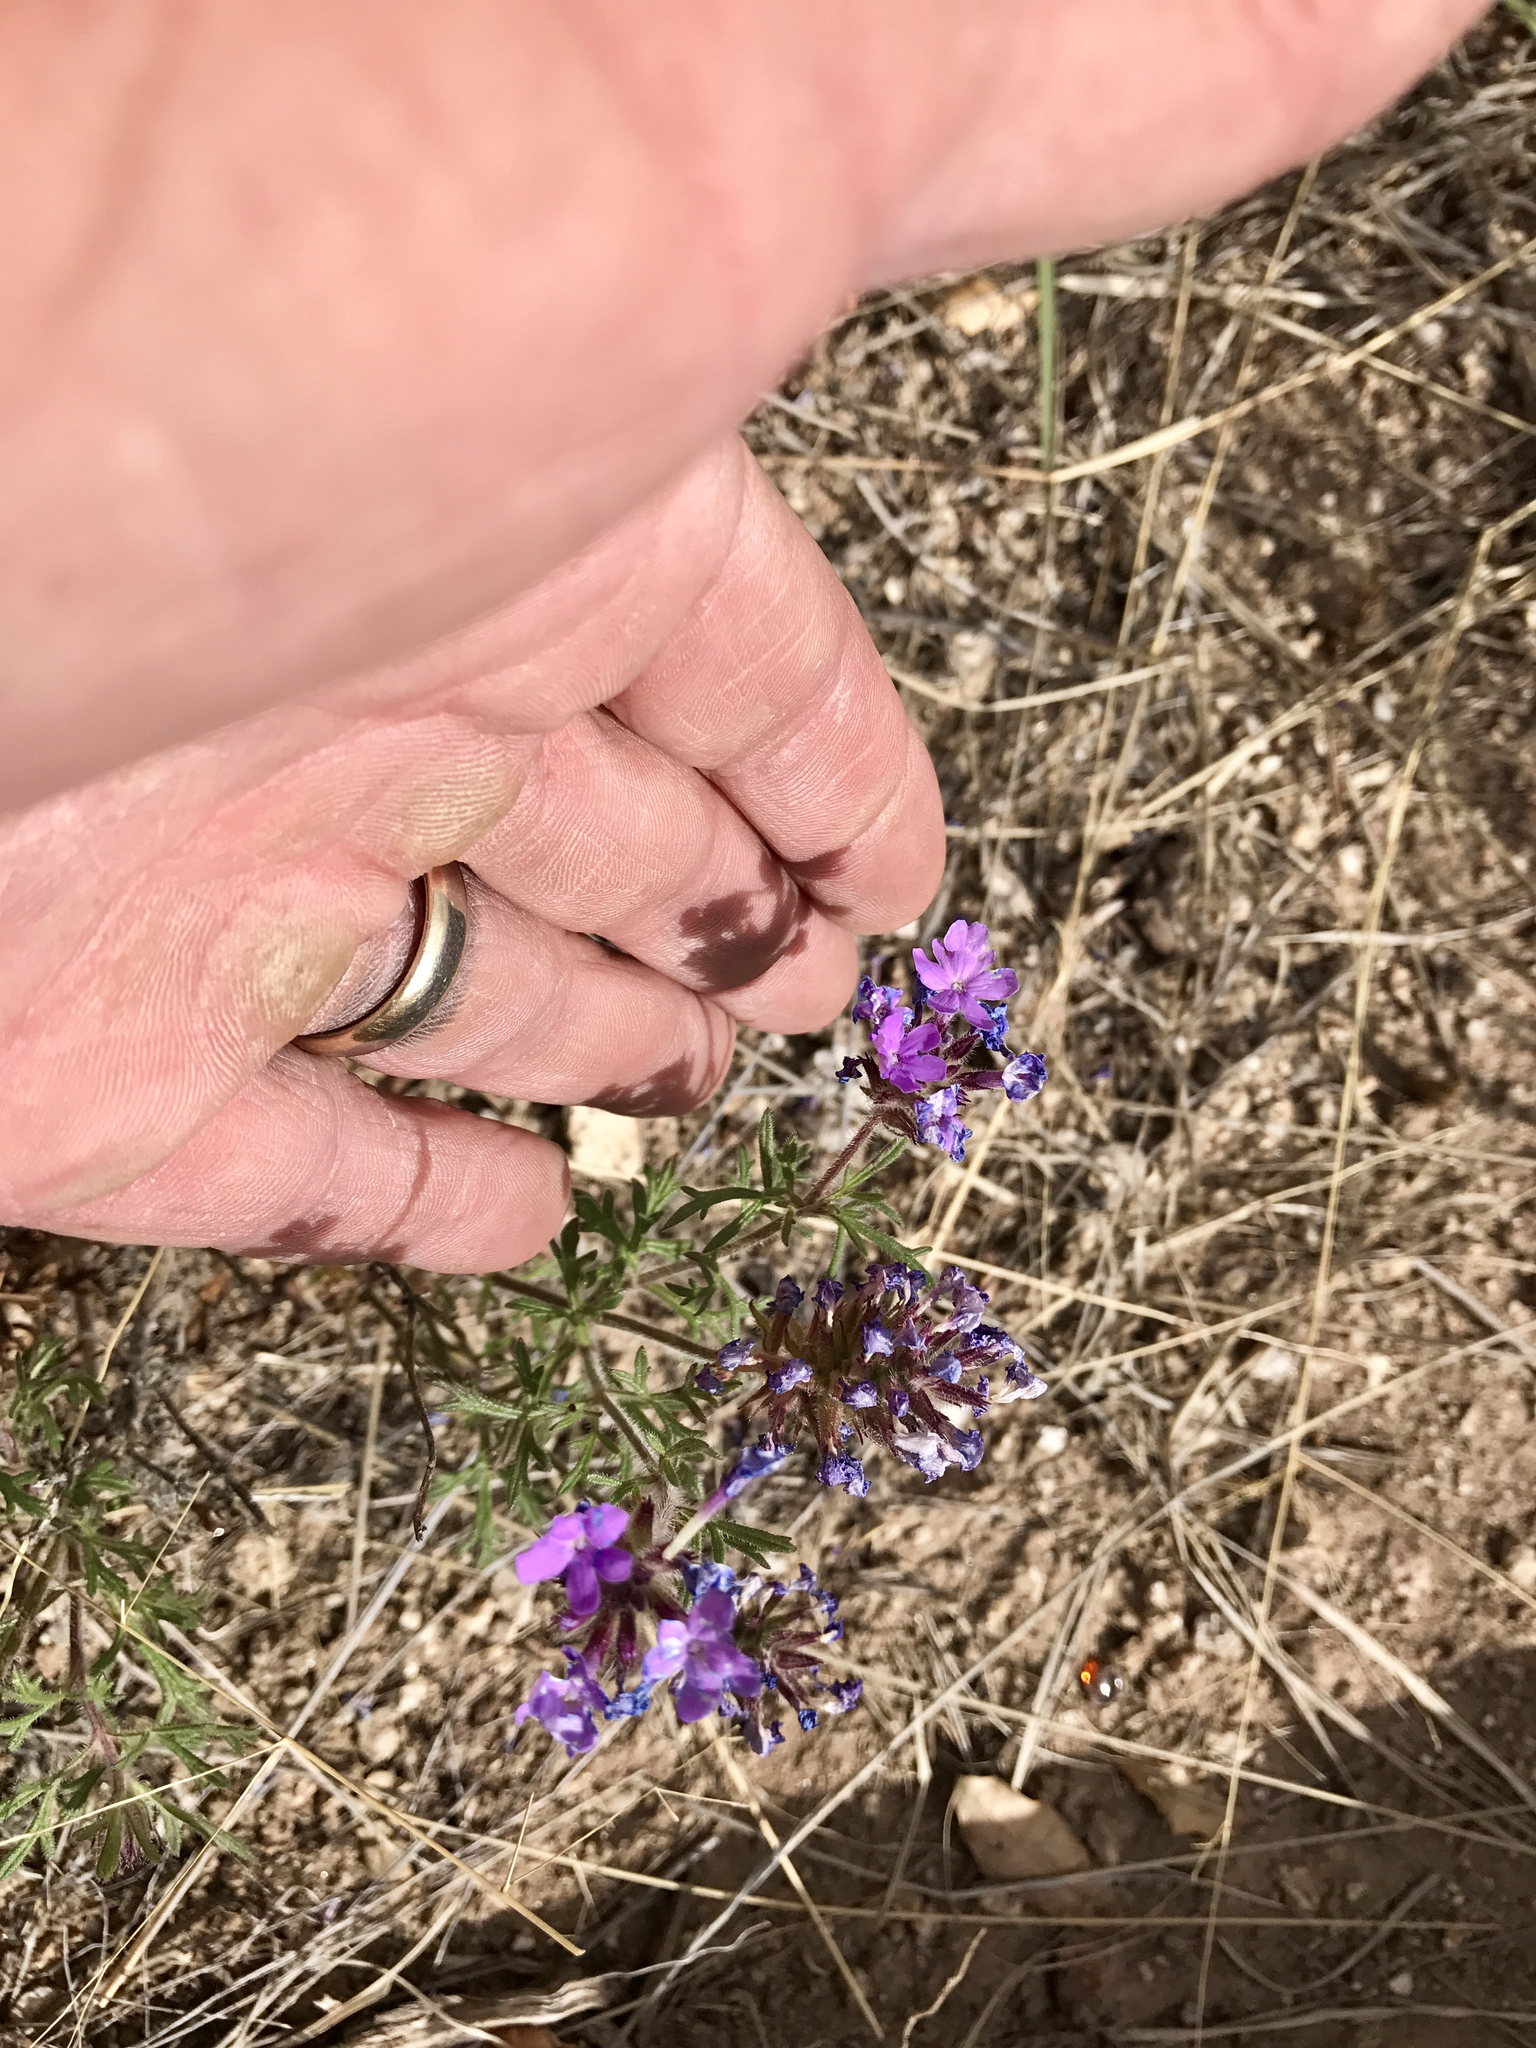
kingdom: Plantae
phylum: Tracheophyta
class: Magnoliopsida
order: Lamiales
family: Verbenaceae
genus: Verbena
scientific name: Verbena chiricahensis
